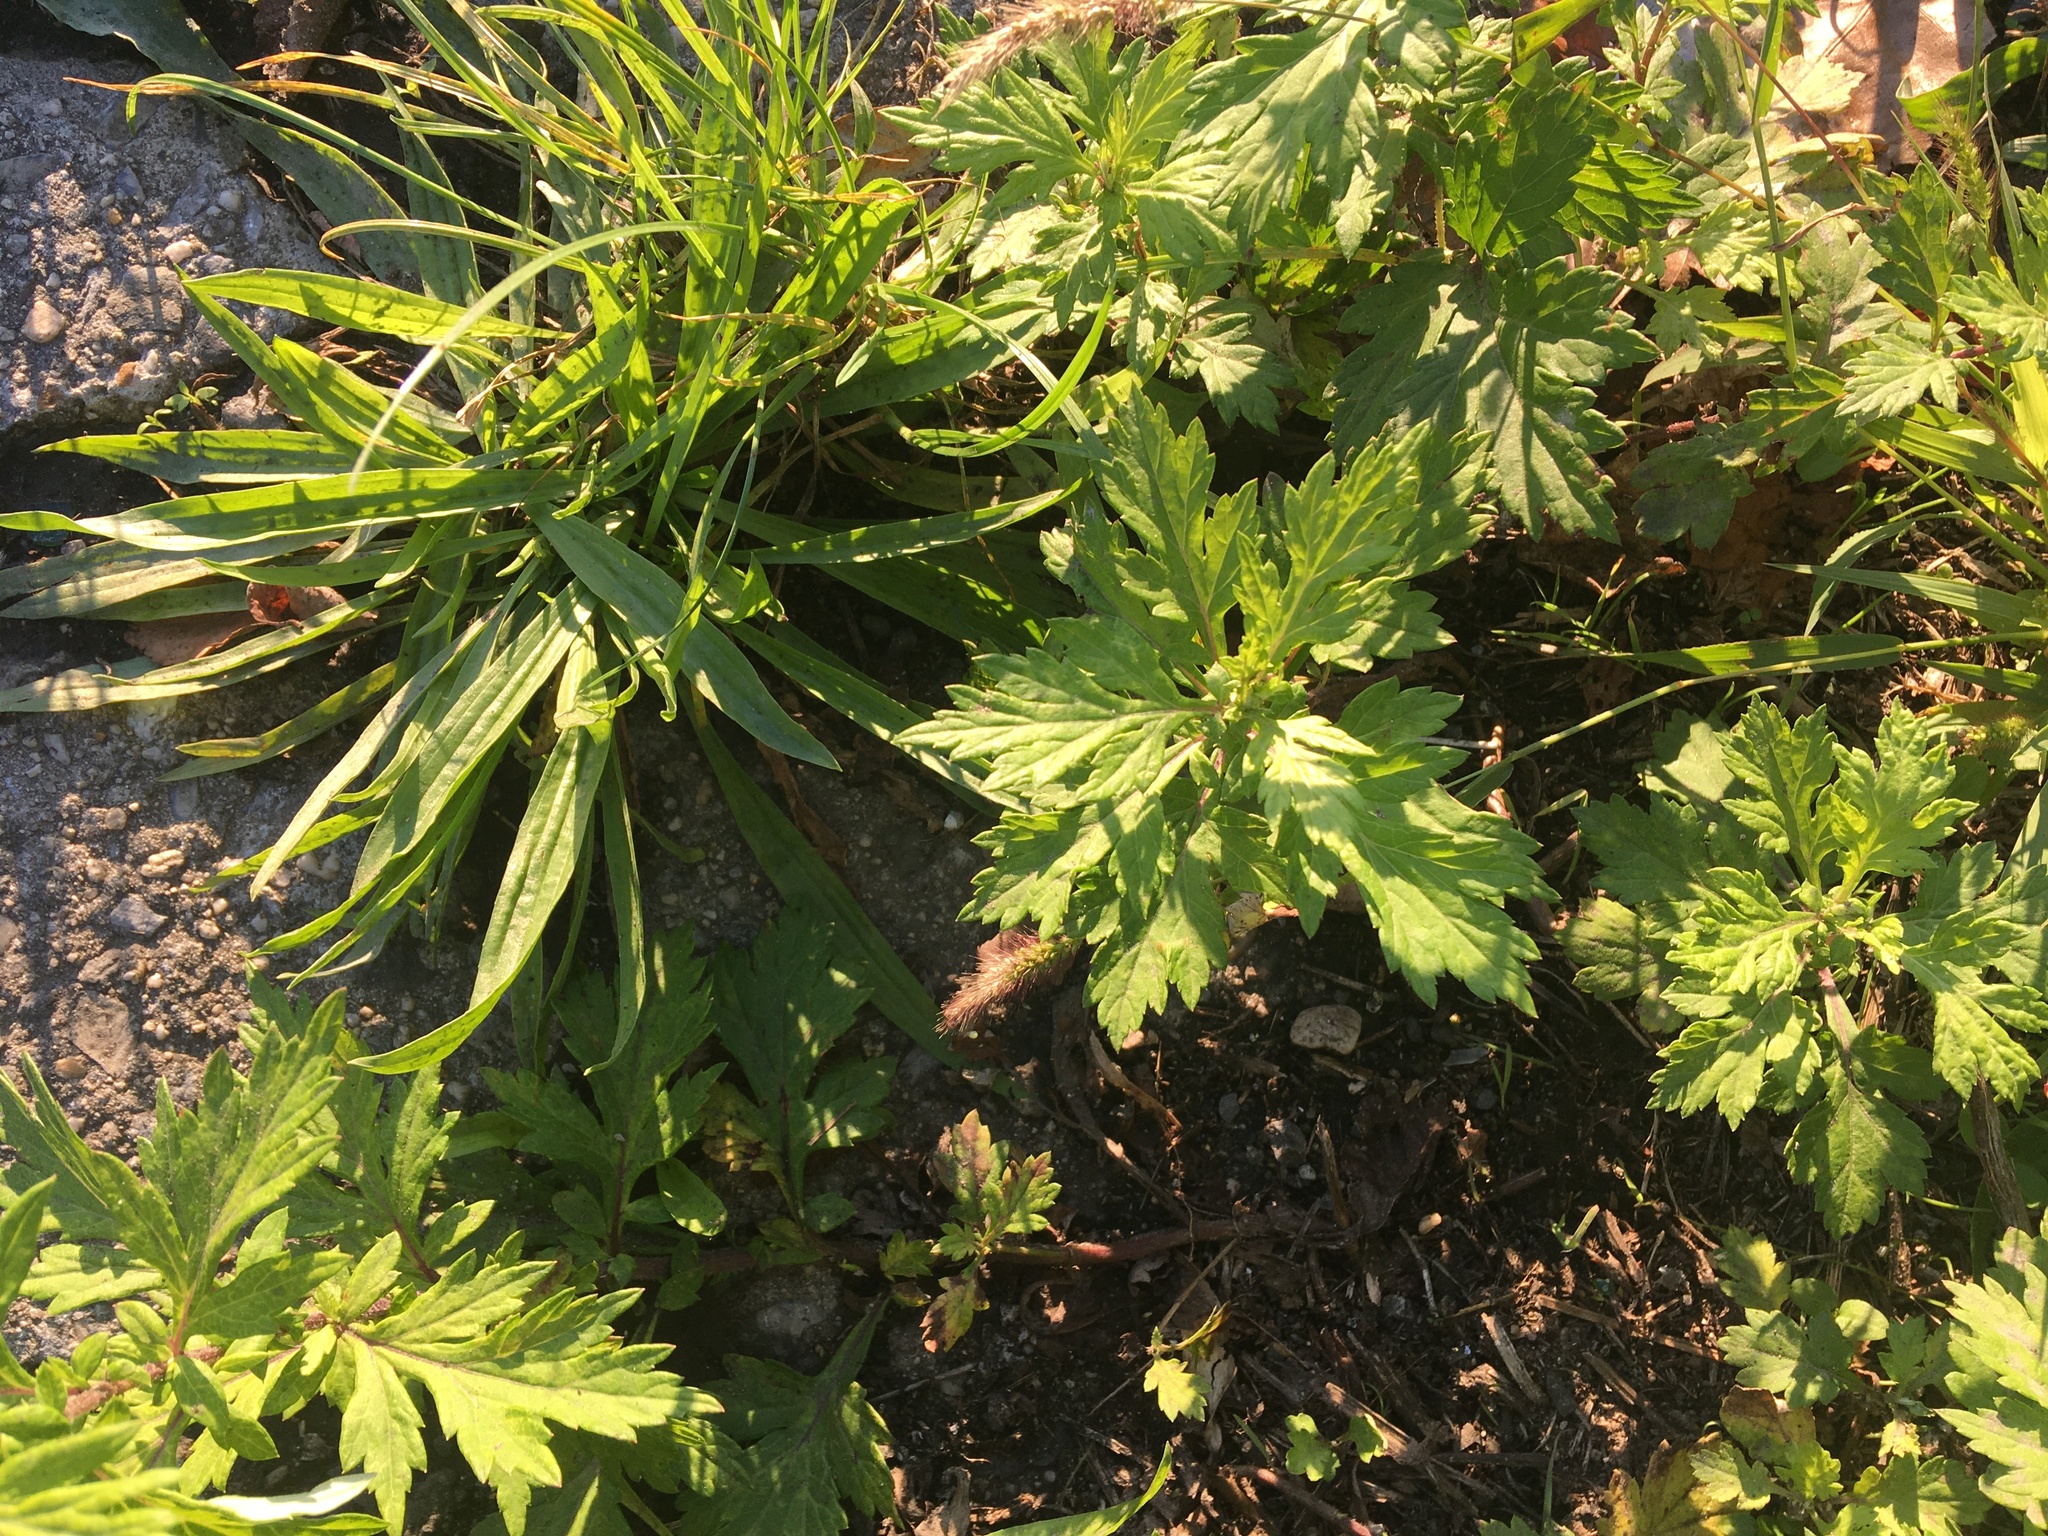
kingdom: Plantae
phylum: Tracheophyta
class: Magnoliopsida
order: Asterales
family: Asteraceae
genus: Artemisia
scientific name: Artemisia vulgaris
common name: Mugwort
